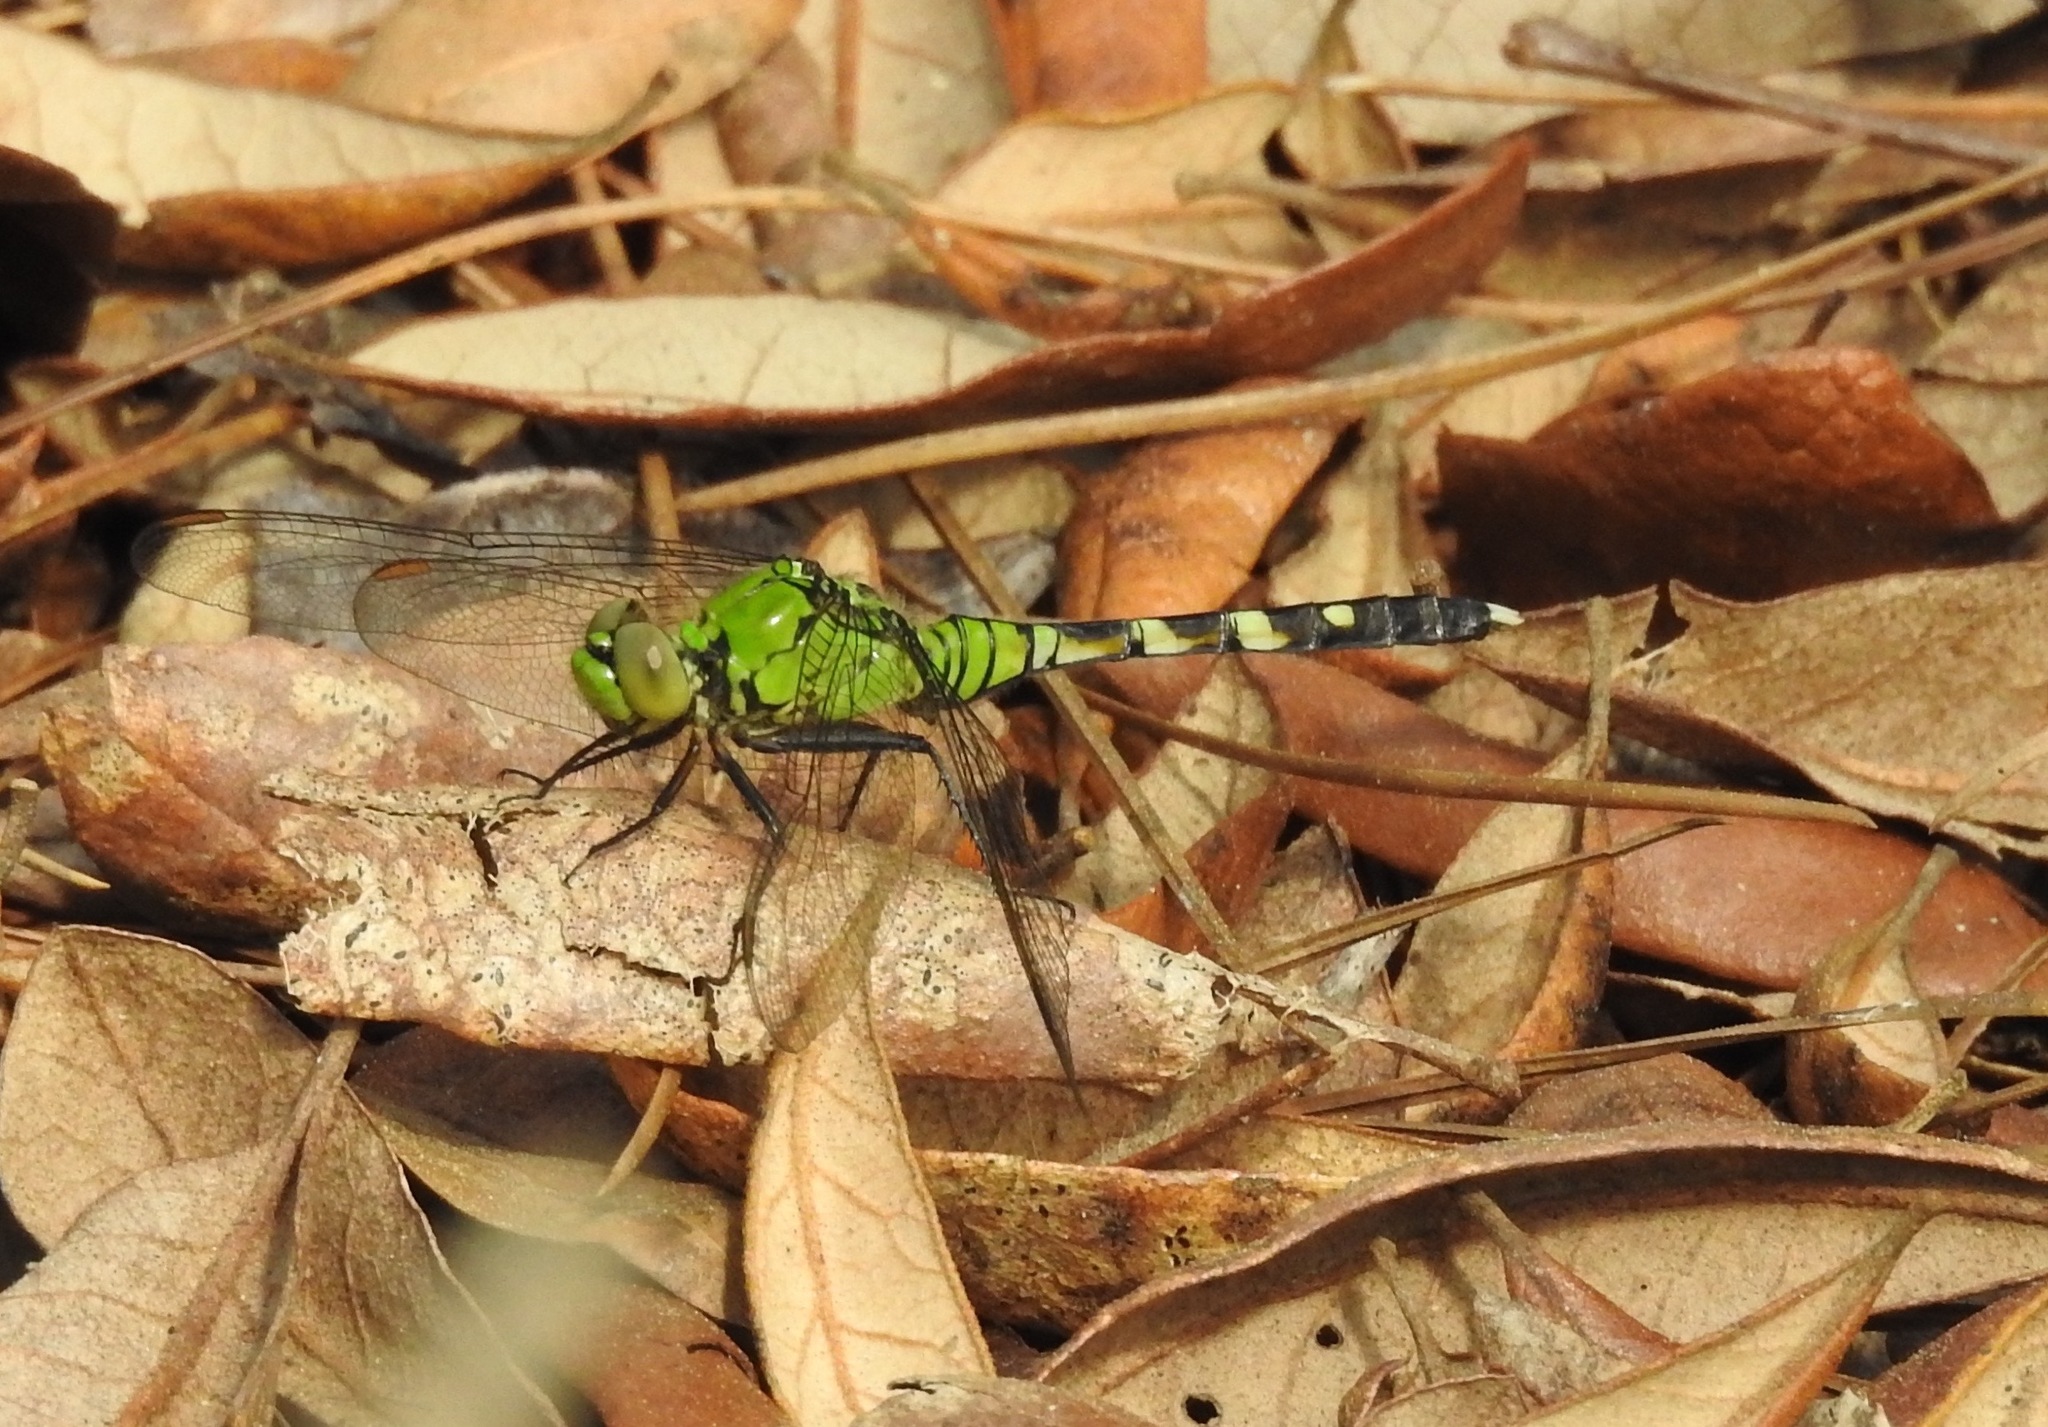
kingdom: Animalia
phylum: Arthropoda
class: Insecta
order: Odonata
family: Libellulidae
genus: Erythemis
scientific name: Erythemis simplicicollis
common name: Eastern pondhawk
